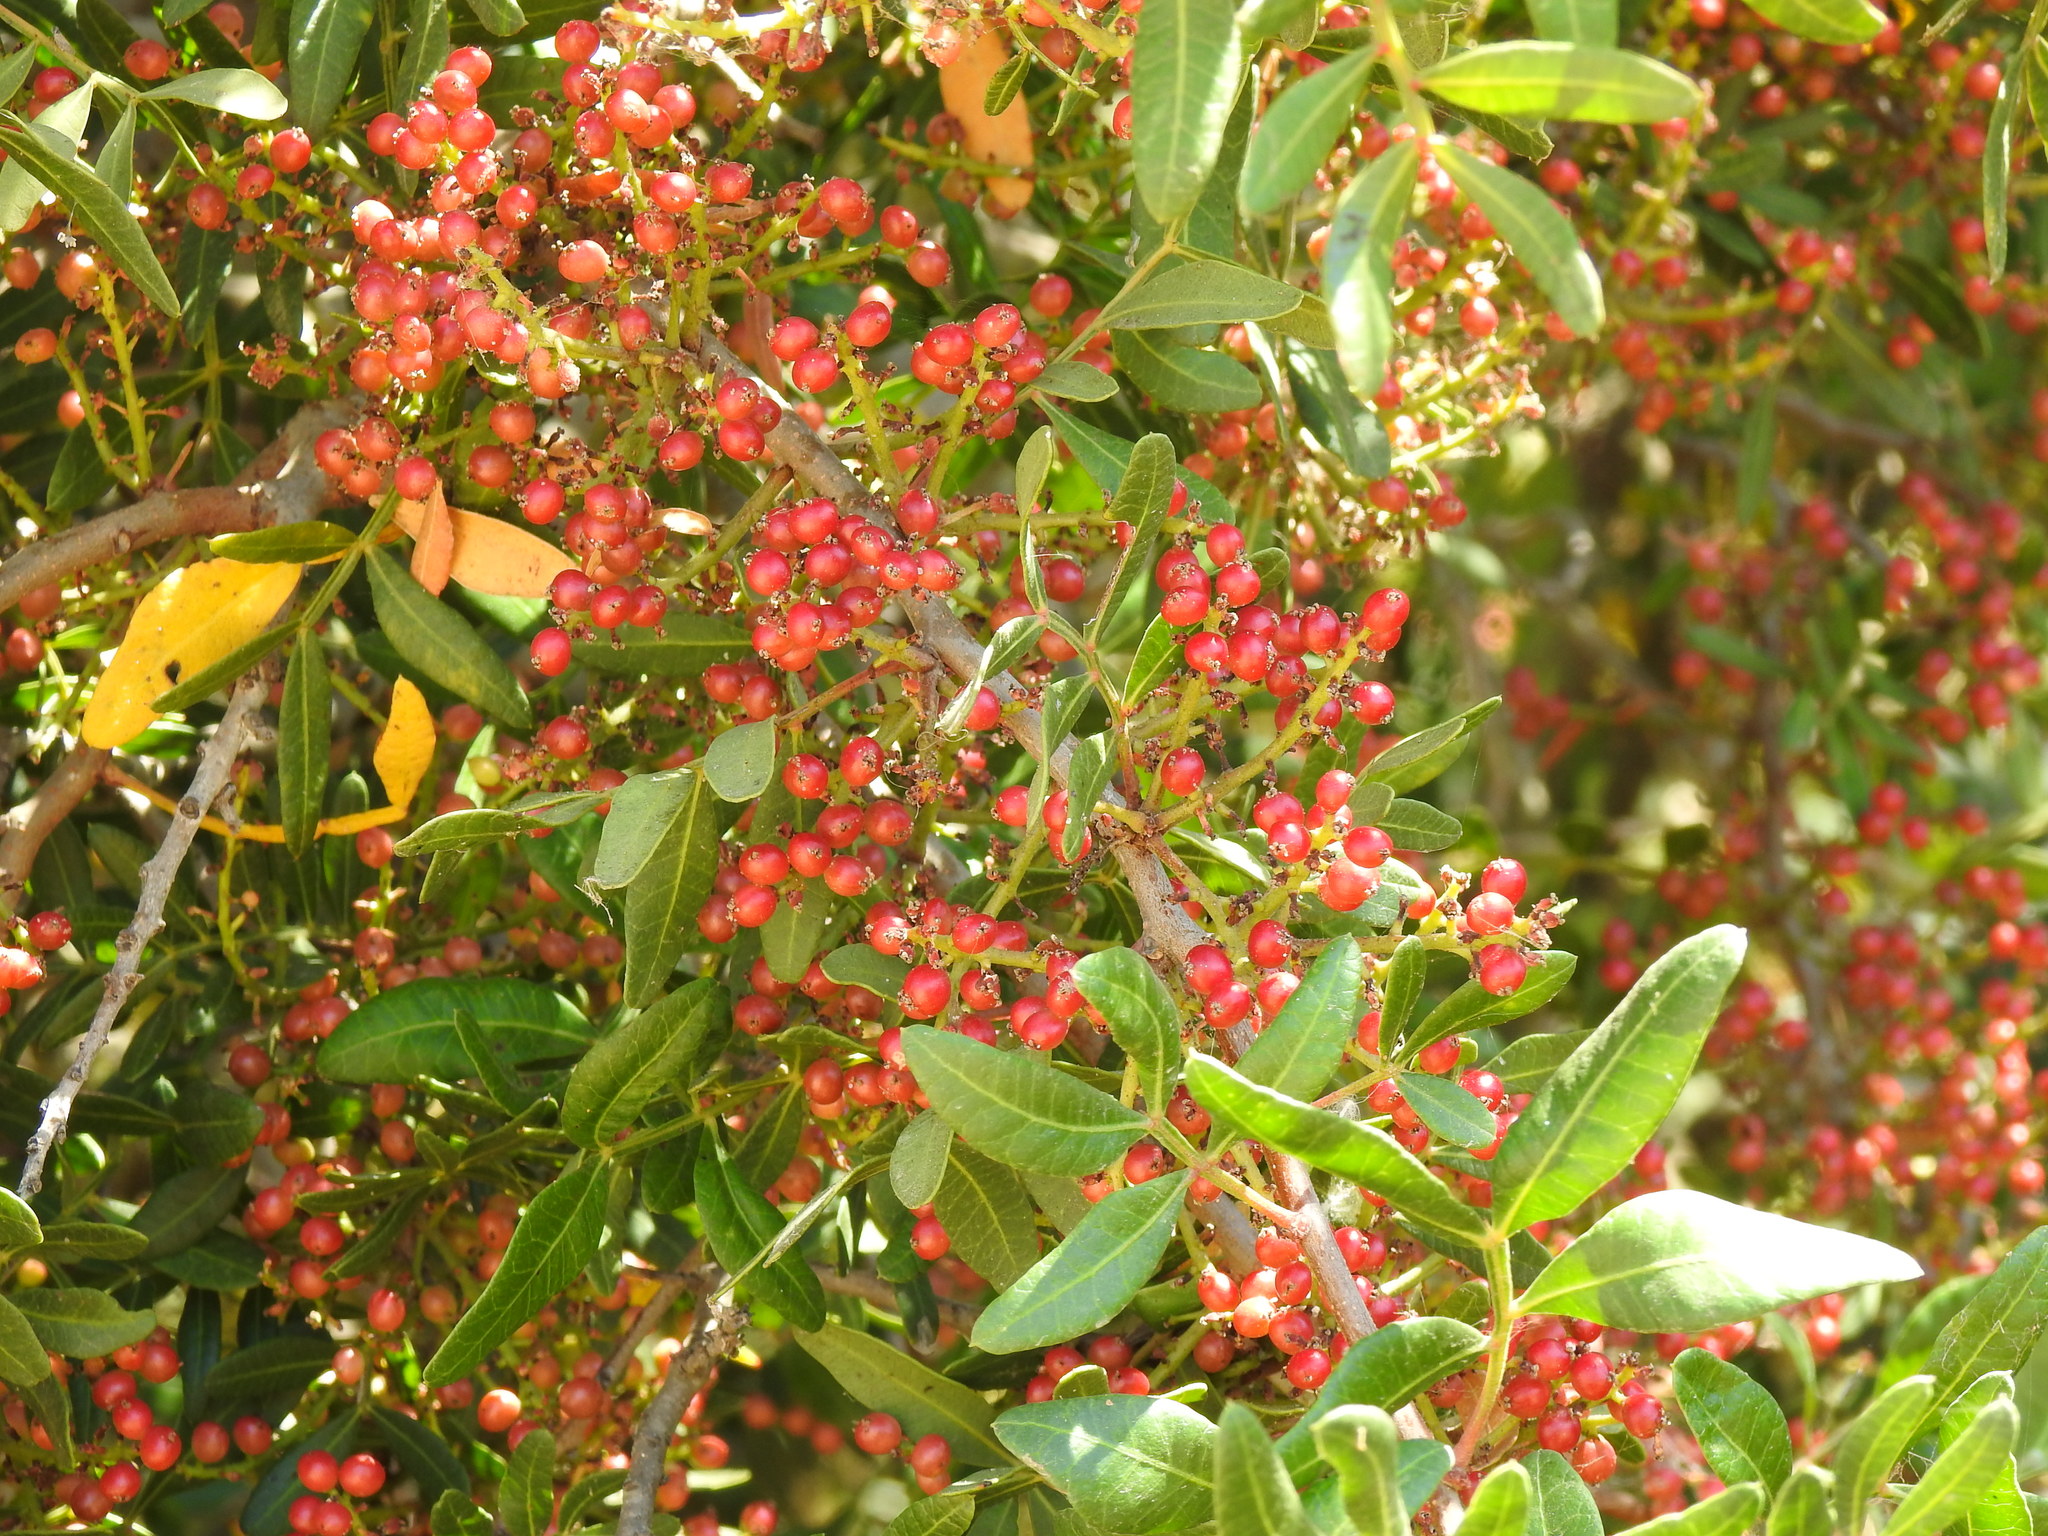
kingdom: Plantae
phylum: Tracheophyta
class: Magnoliopsida
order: Sapindales
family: Anacardiaceae
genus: Pistacia
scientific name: Pistacia lentiscus
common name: Lentisk
